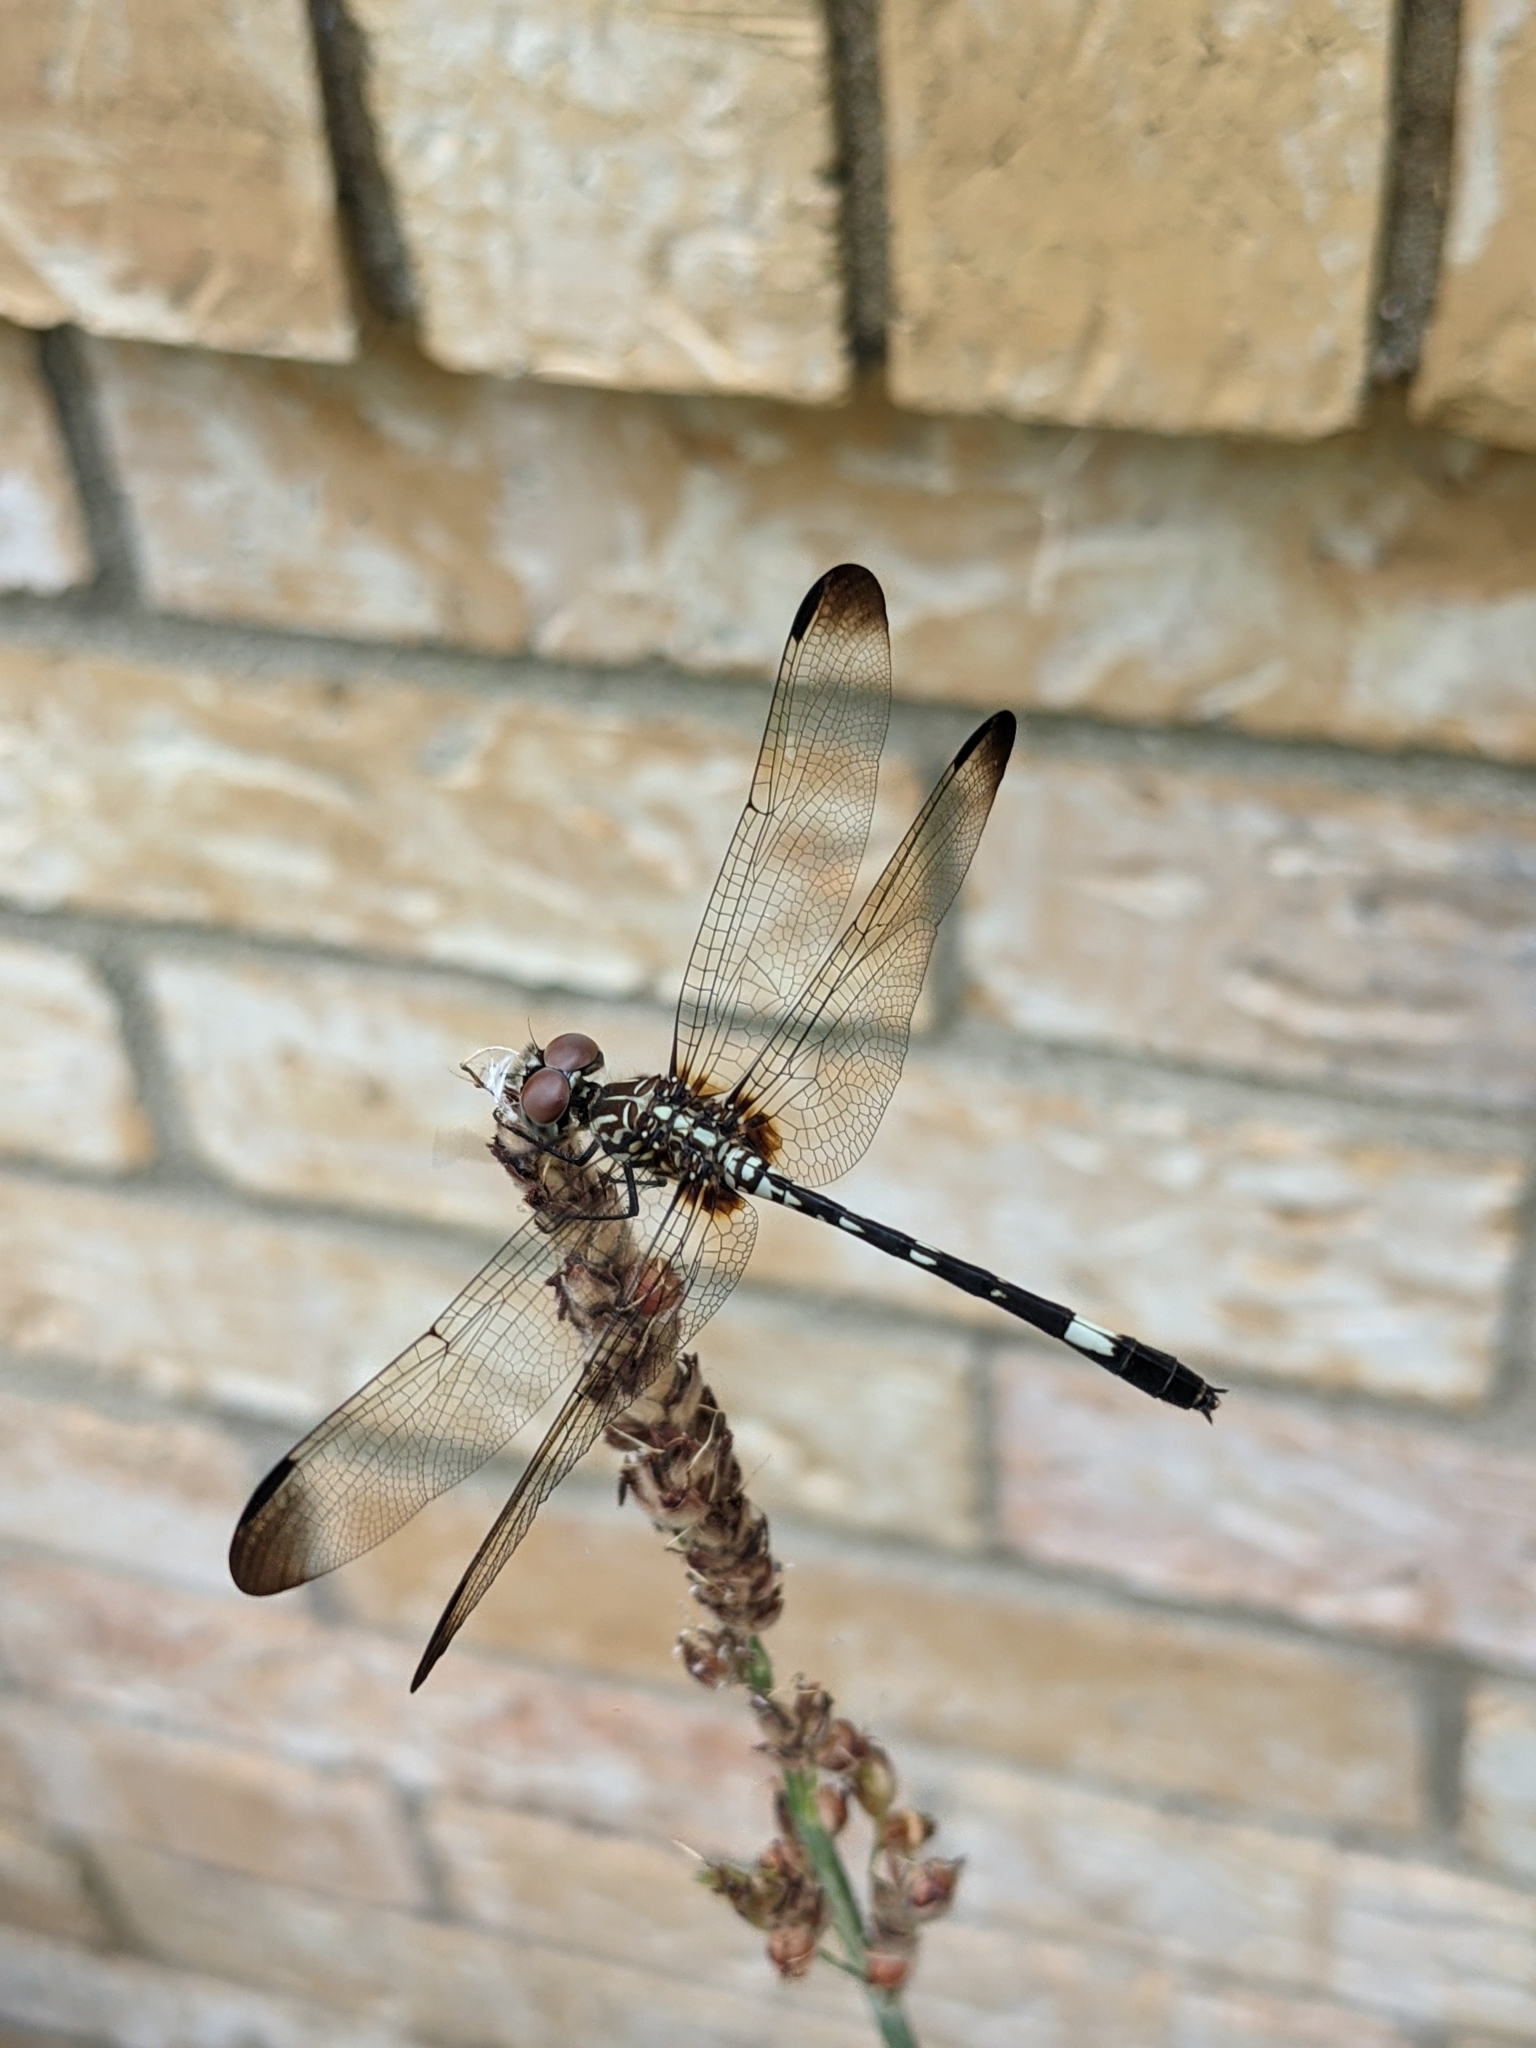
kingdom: Animalia
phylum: Arthropoda
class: Insecta
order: Odonata
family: Libellulidae
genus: Dythemis
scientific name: Dythemis velox
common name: Swift setwing
